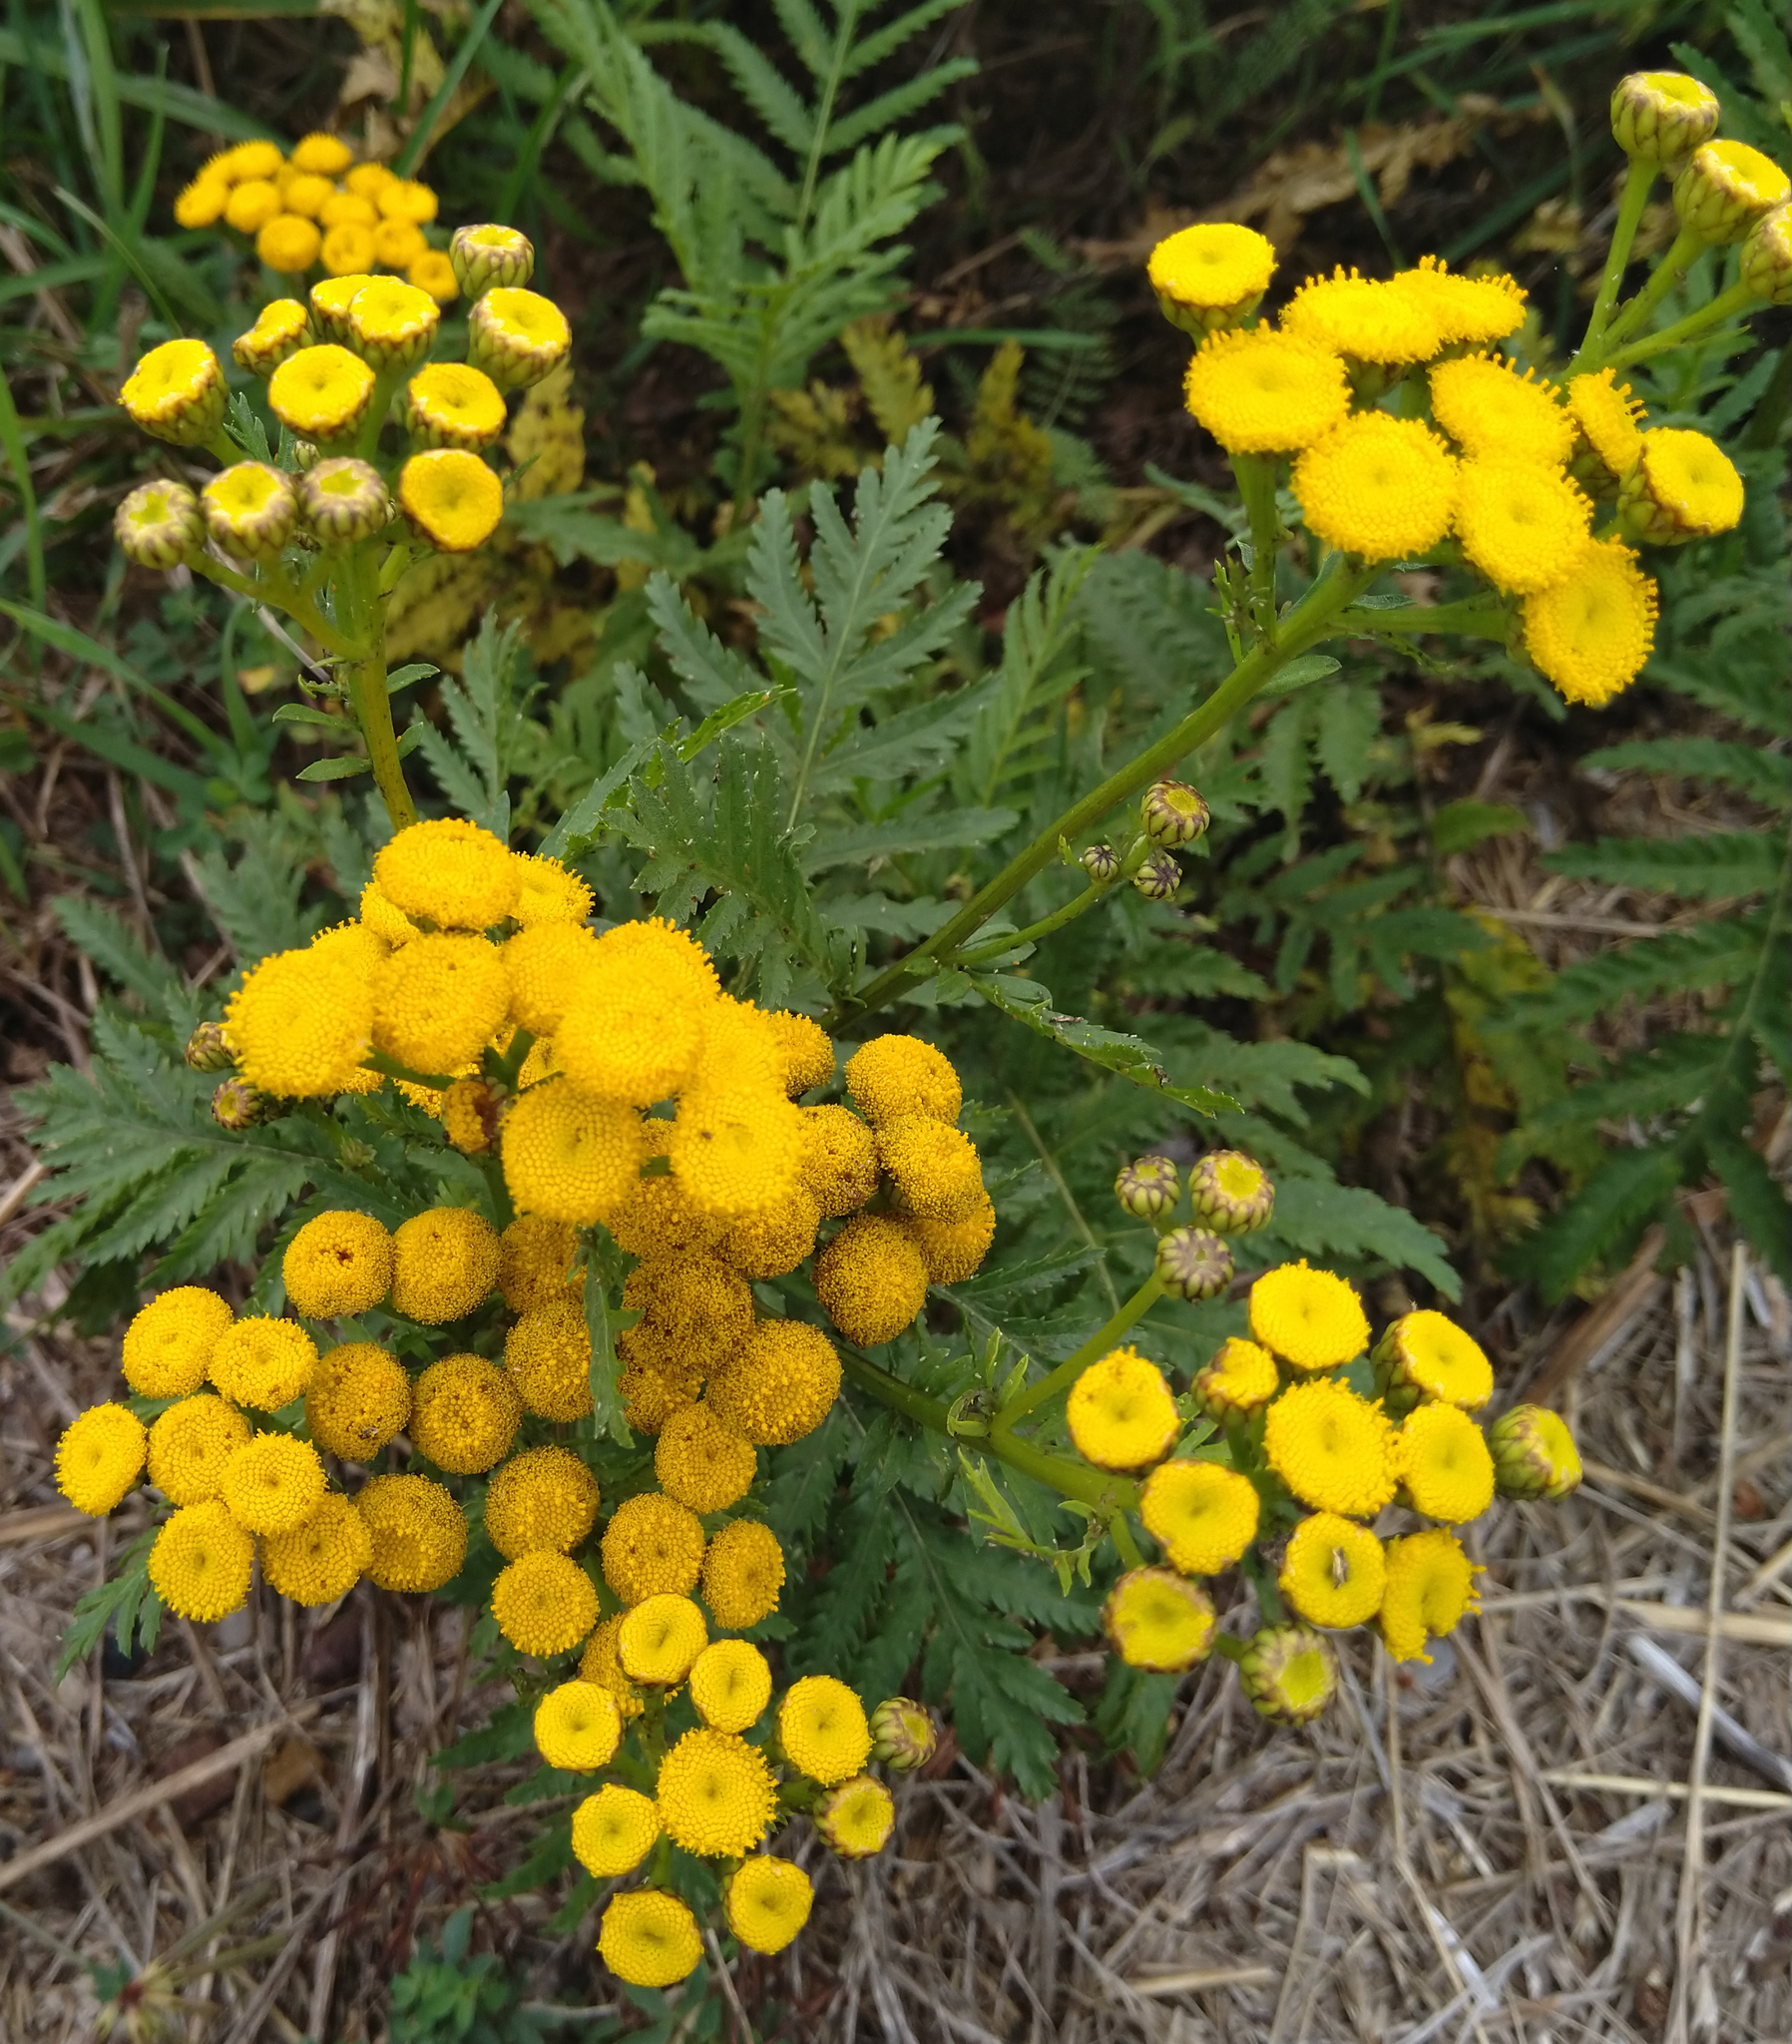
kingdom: Plantae
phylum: Tracheophyta
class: Magnoliopsida
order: Asterales
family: Asteraceae
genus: Tanacetum
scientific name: Tanacetum vulgare
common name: Common tansy
